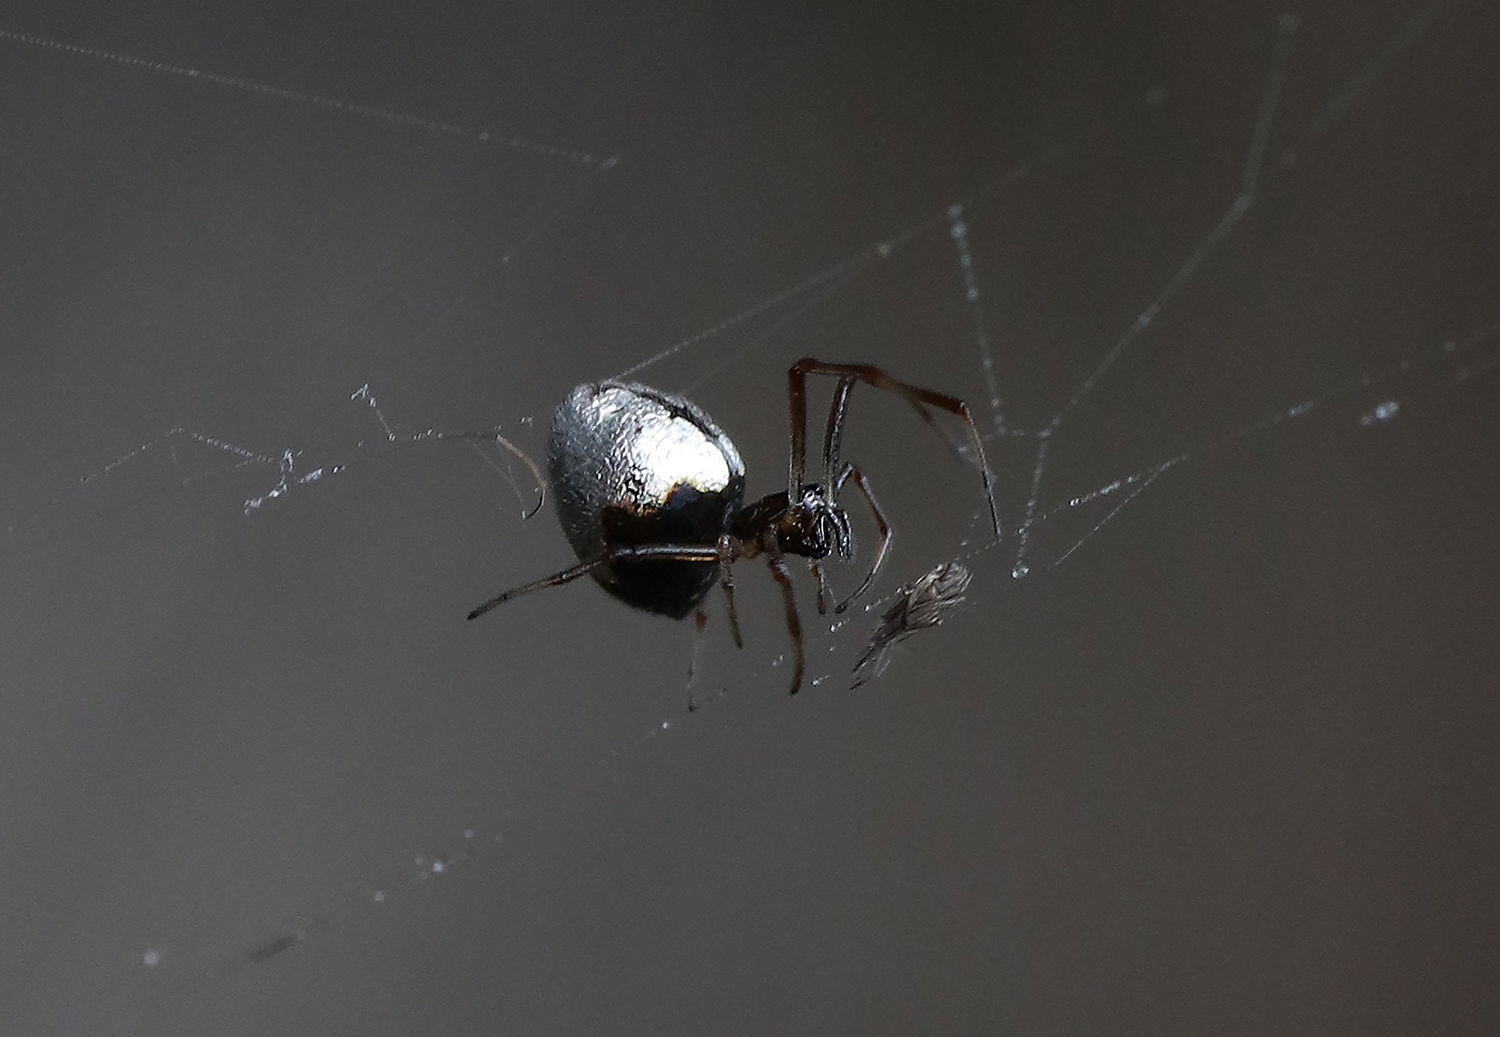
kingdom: Animalia
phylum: Arthropoda
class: Arachnida
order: Araneae
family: Theridiidae
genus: Argyrodes
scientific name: Argyrodes antipodianus
